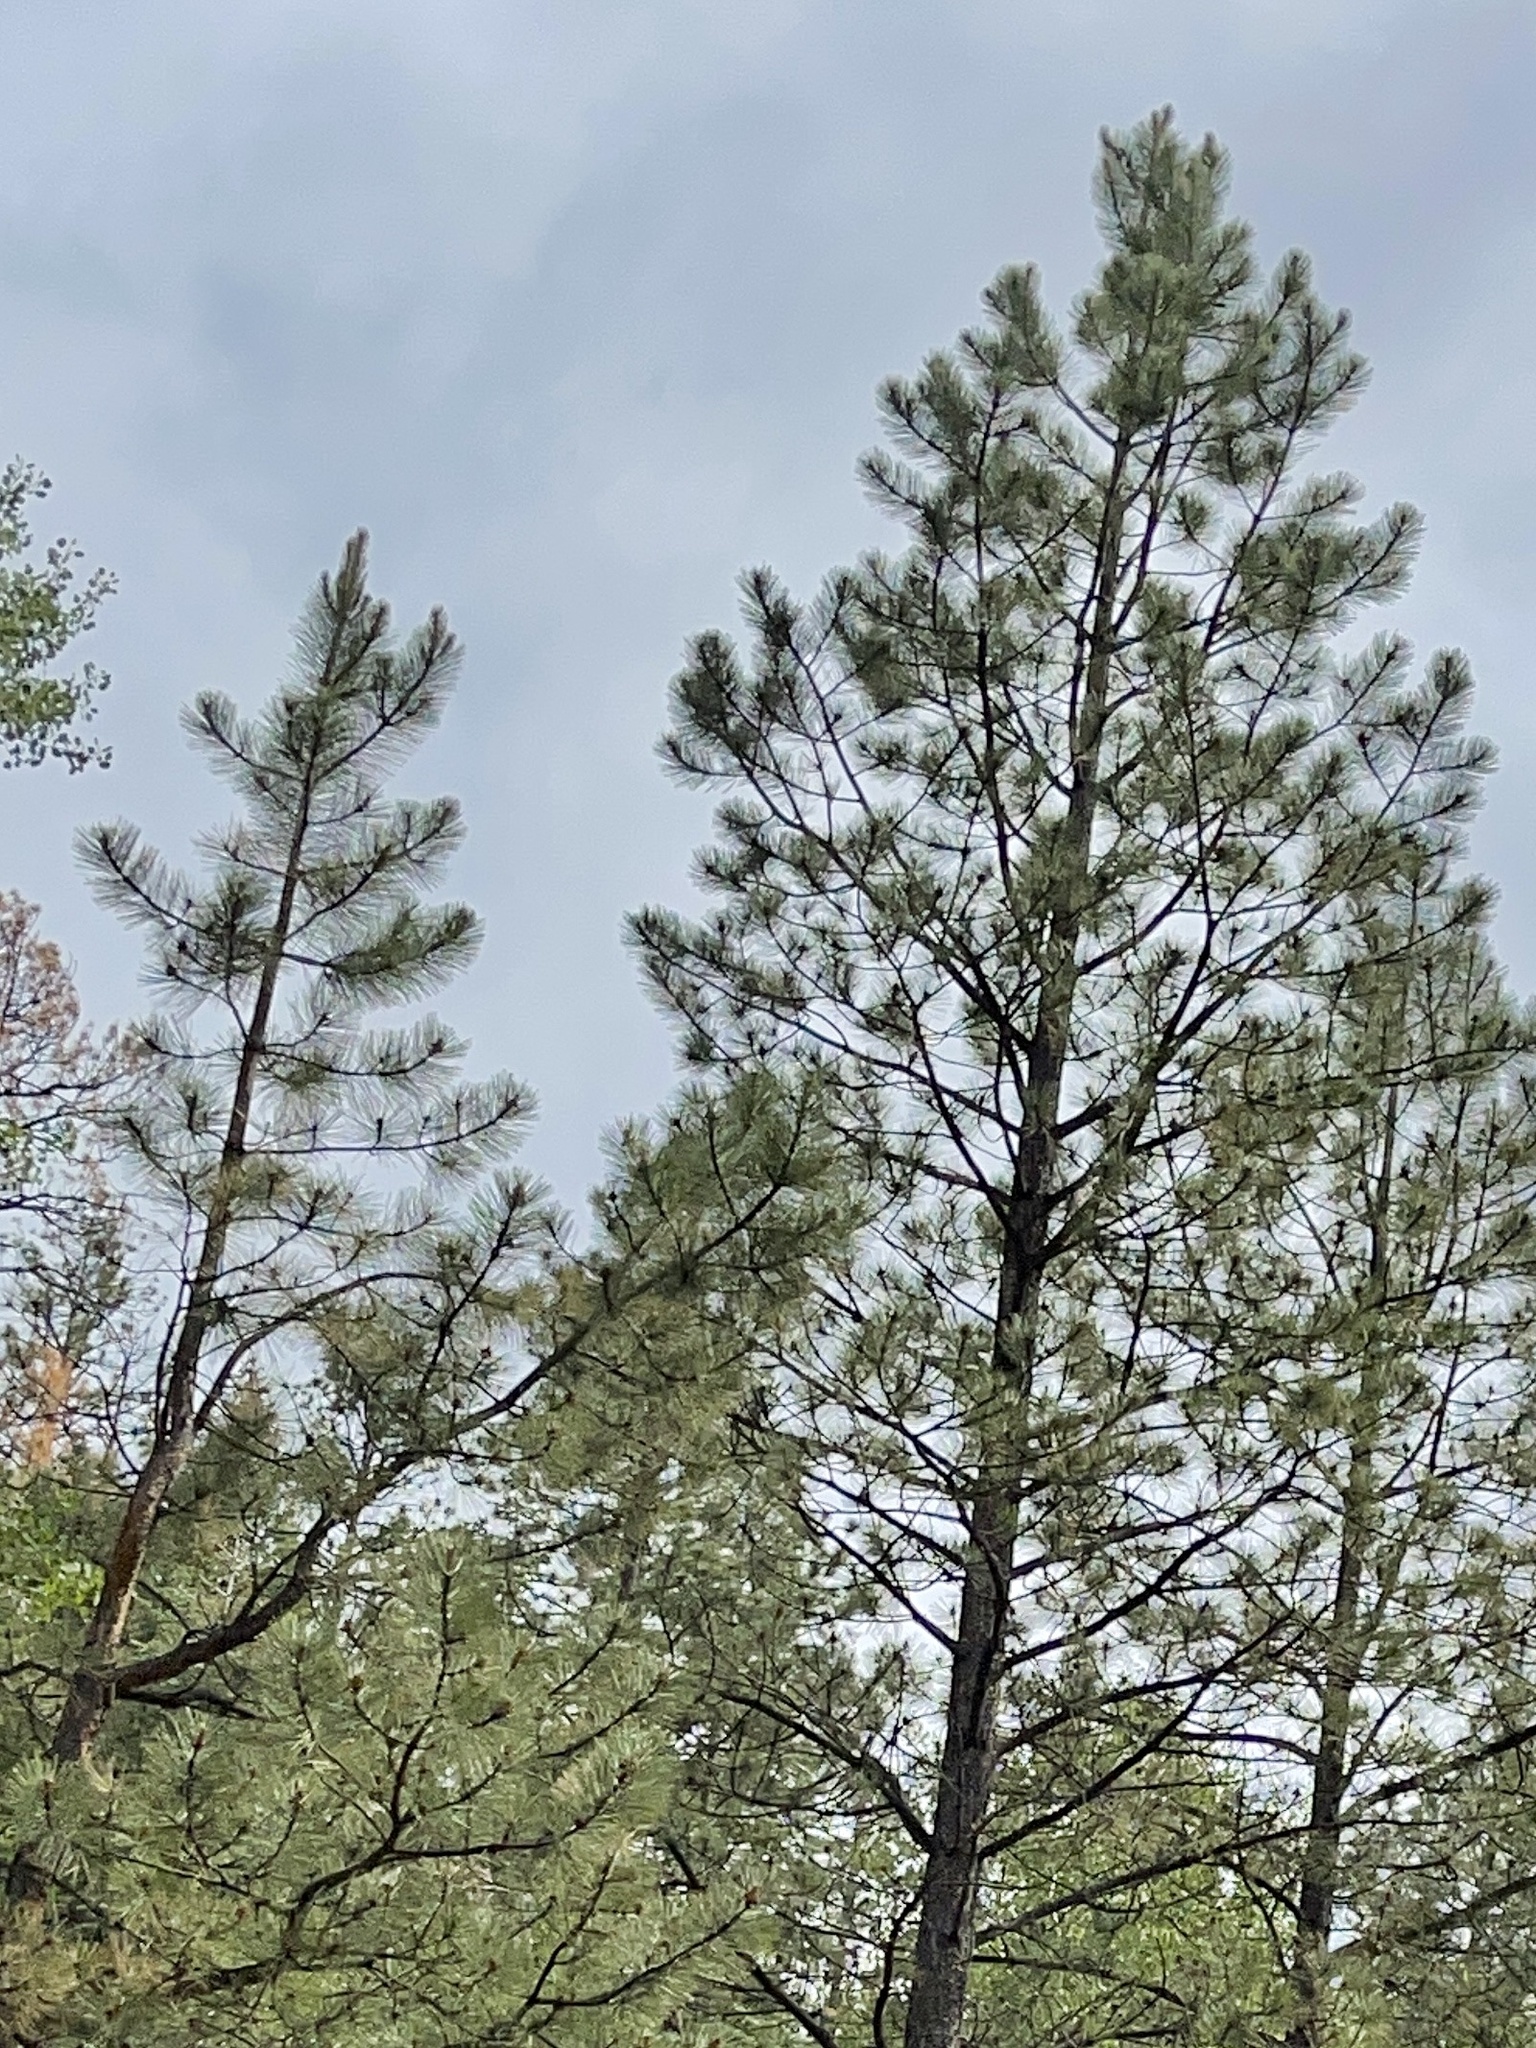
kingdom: Plantae
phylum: Tracheophyta
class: Pinopsida
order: Pinales
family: Pinaceae
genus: Pinus
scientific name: Pinus ponderosa
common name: Western yellow-pine
